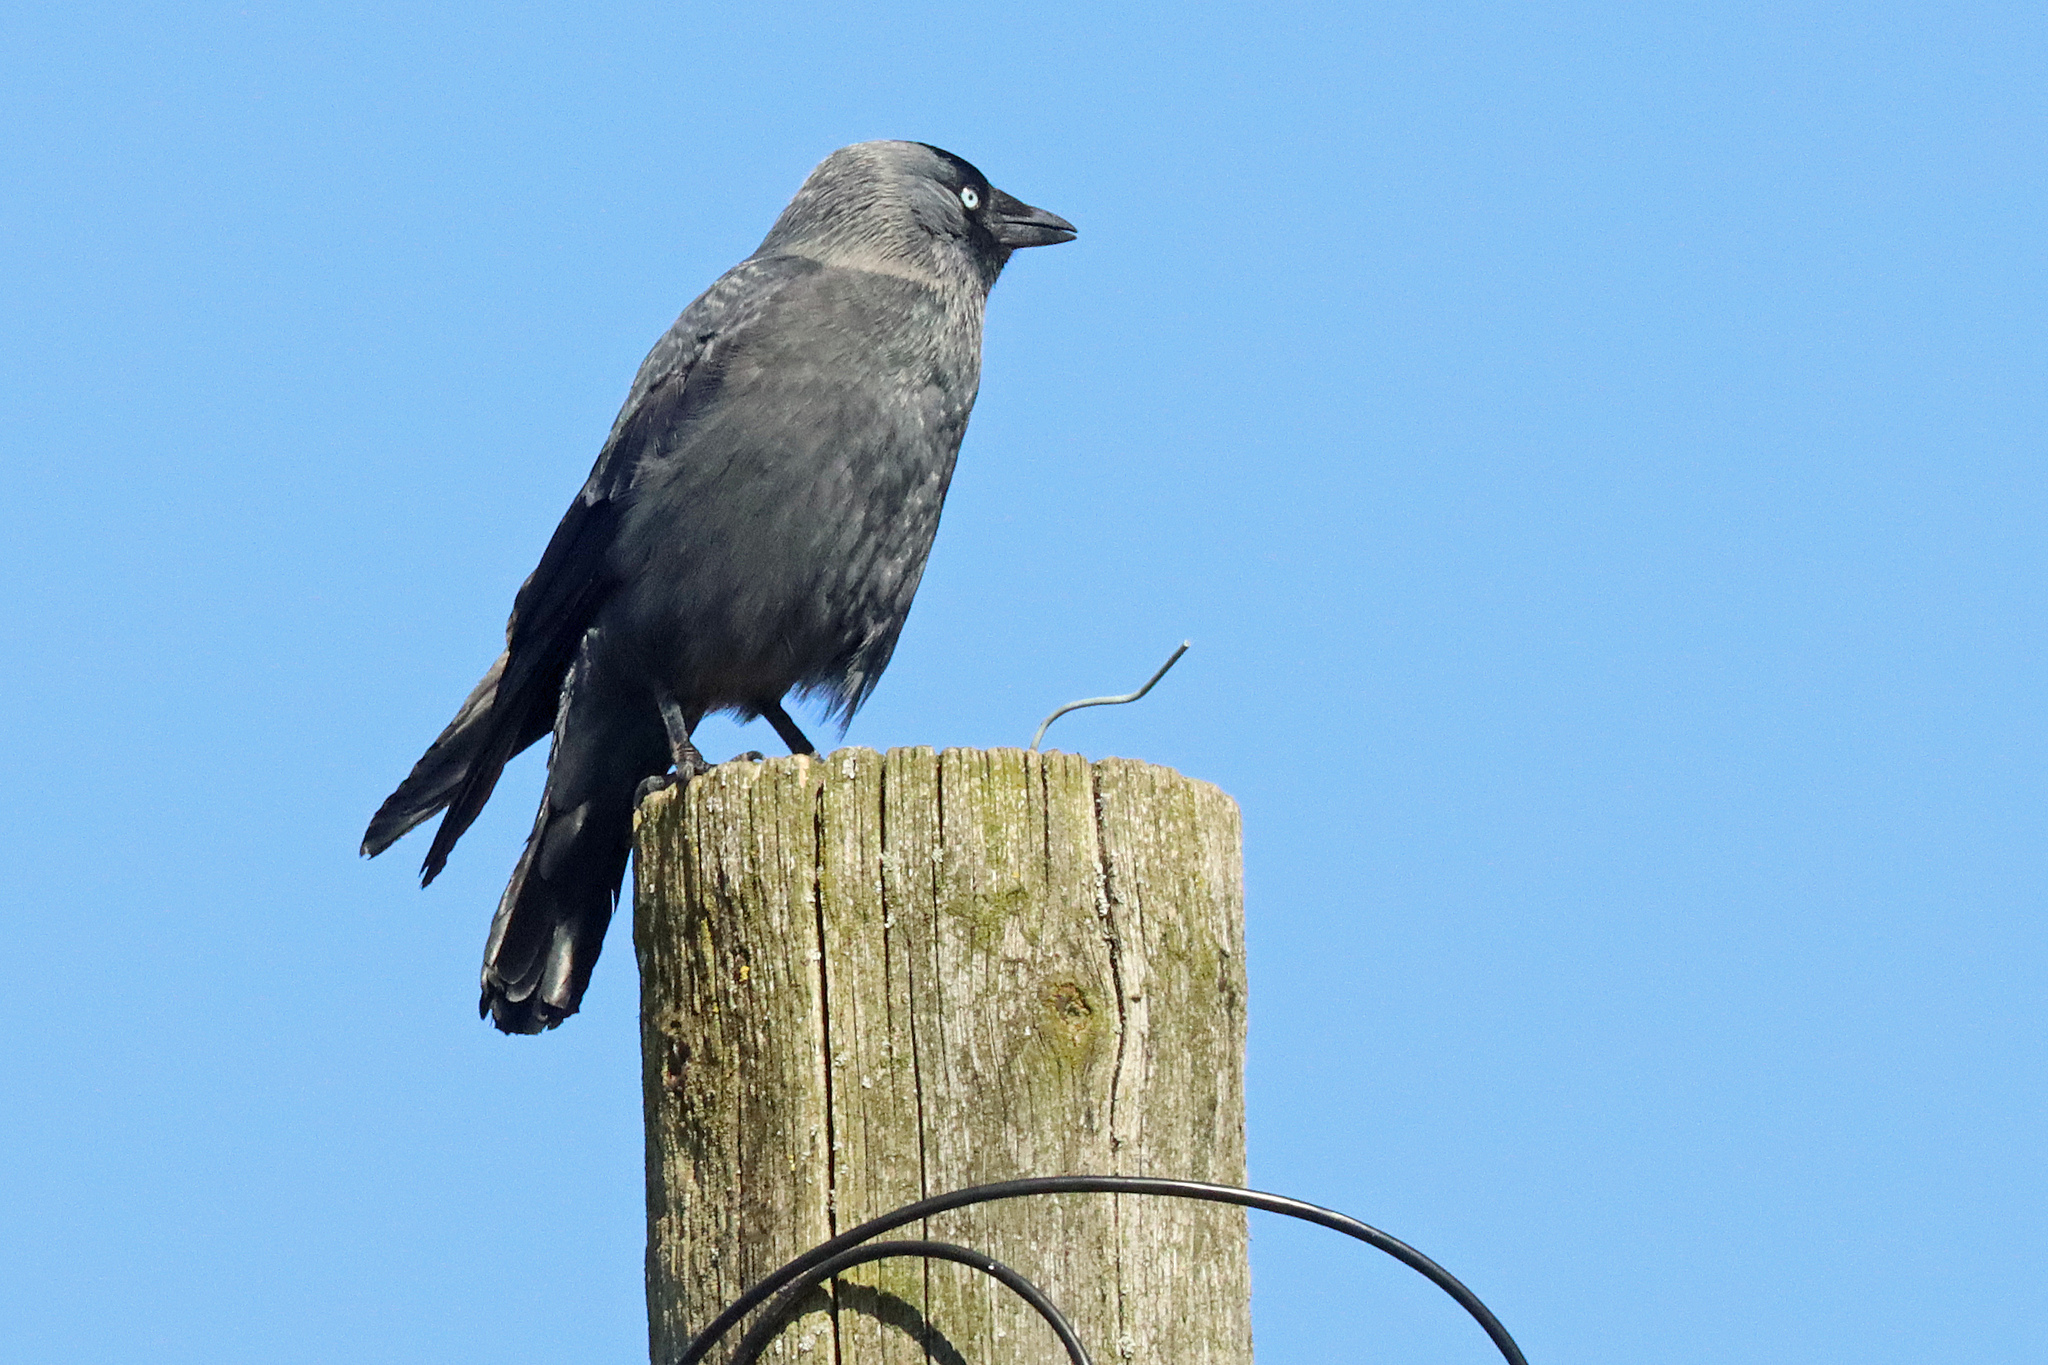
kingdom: Animalia
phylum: Chordata
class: Aves
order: Passeriformes
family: Corvidae
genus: Coloeus
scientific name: Coloeus monedula
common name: Western jackdaw
